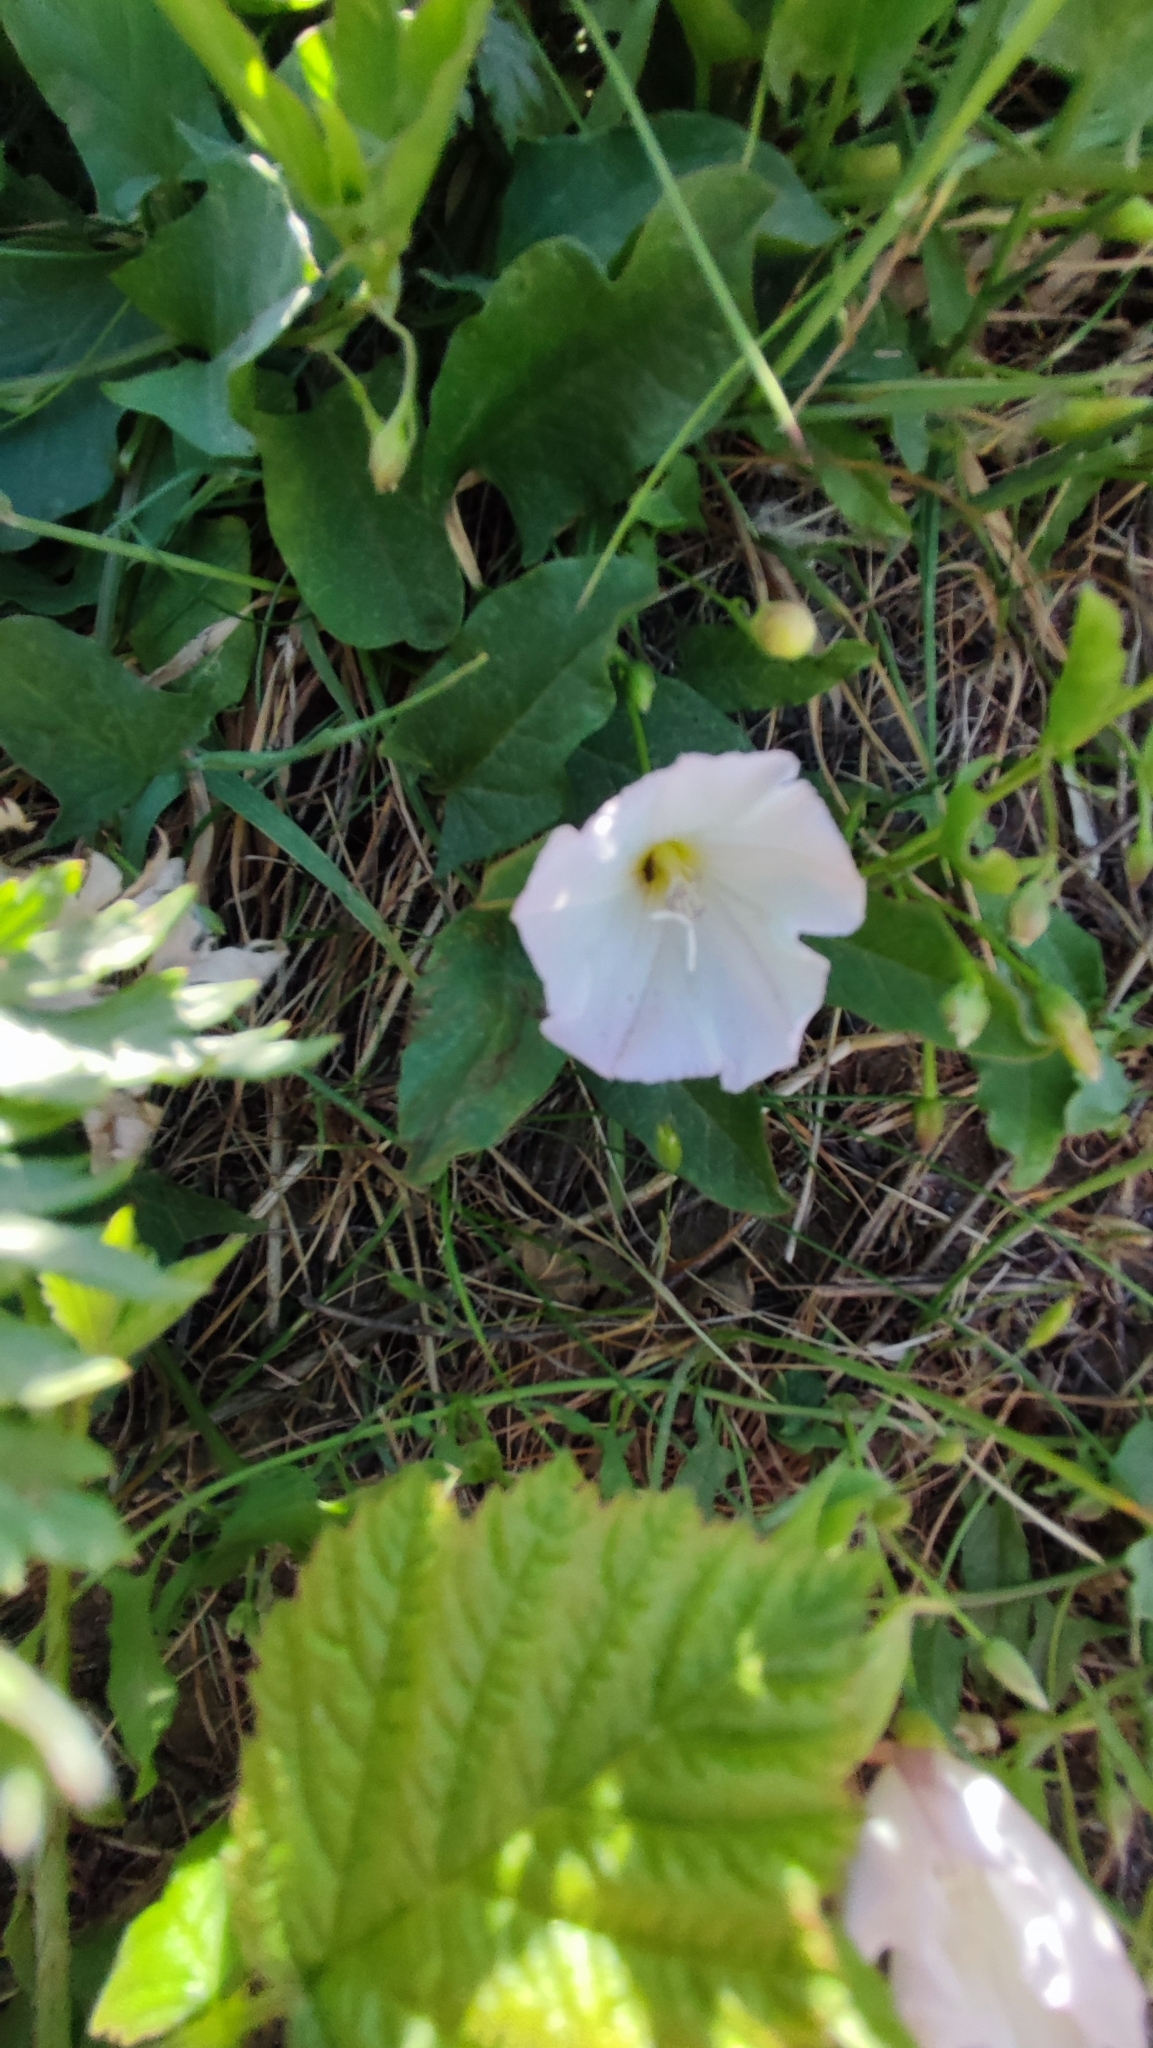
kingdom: Plantae
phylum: Tracheophyta
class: Magnoliopsida
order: Solanales
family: Convolvulaceae
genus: Convolvulus
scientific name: Convolvulus arvensis
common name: Field bindweed
